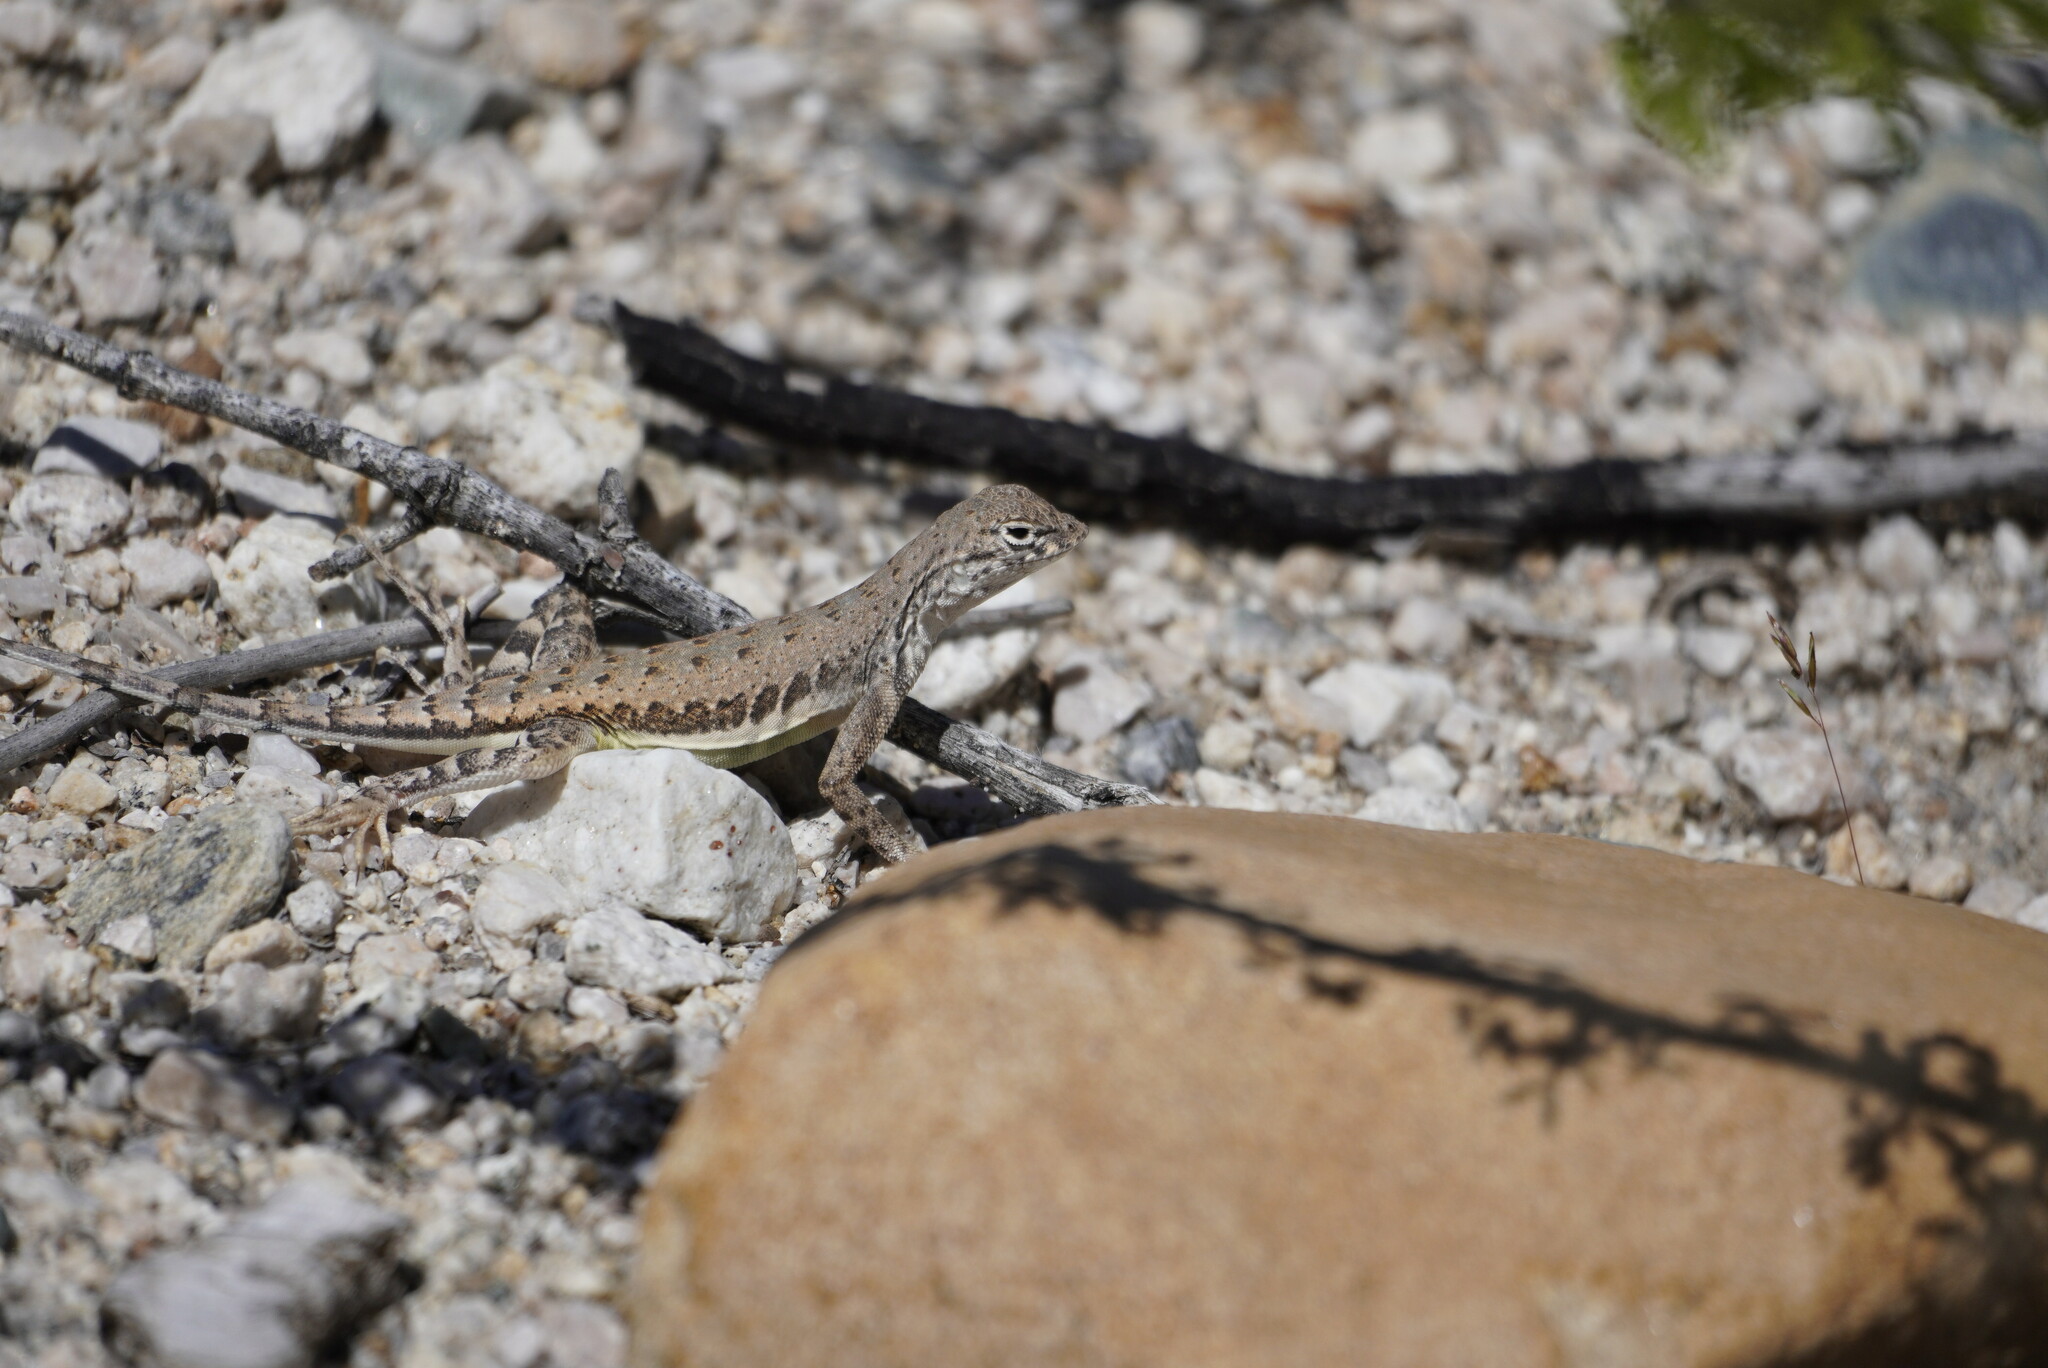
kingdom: Animalia
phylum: Chordata
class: Squamata
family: Phrynosomatidae
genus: Callisaurus
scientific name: Callisaurus draconoides
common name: Zebra-tailed lizard
